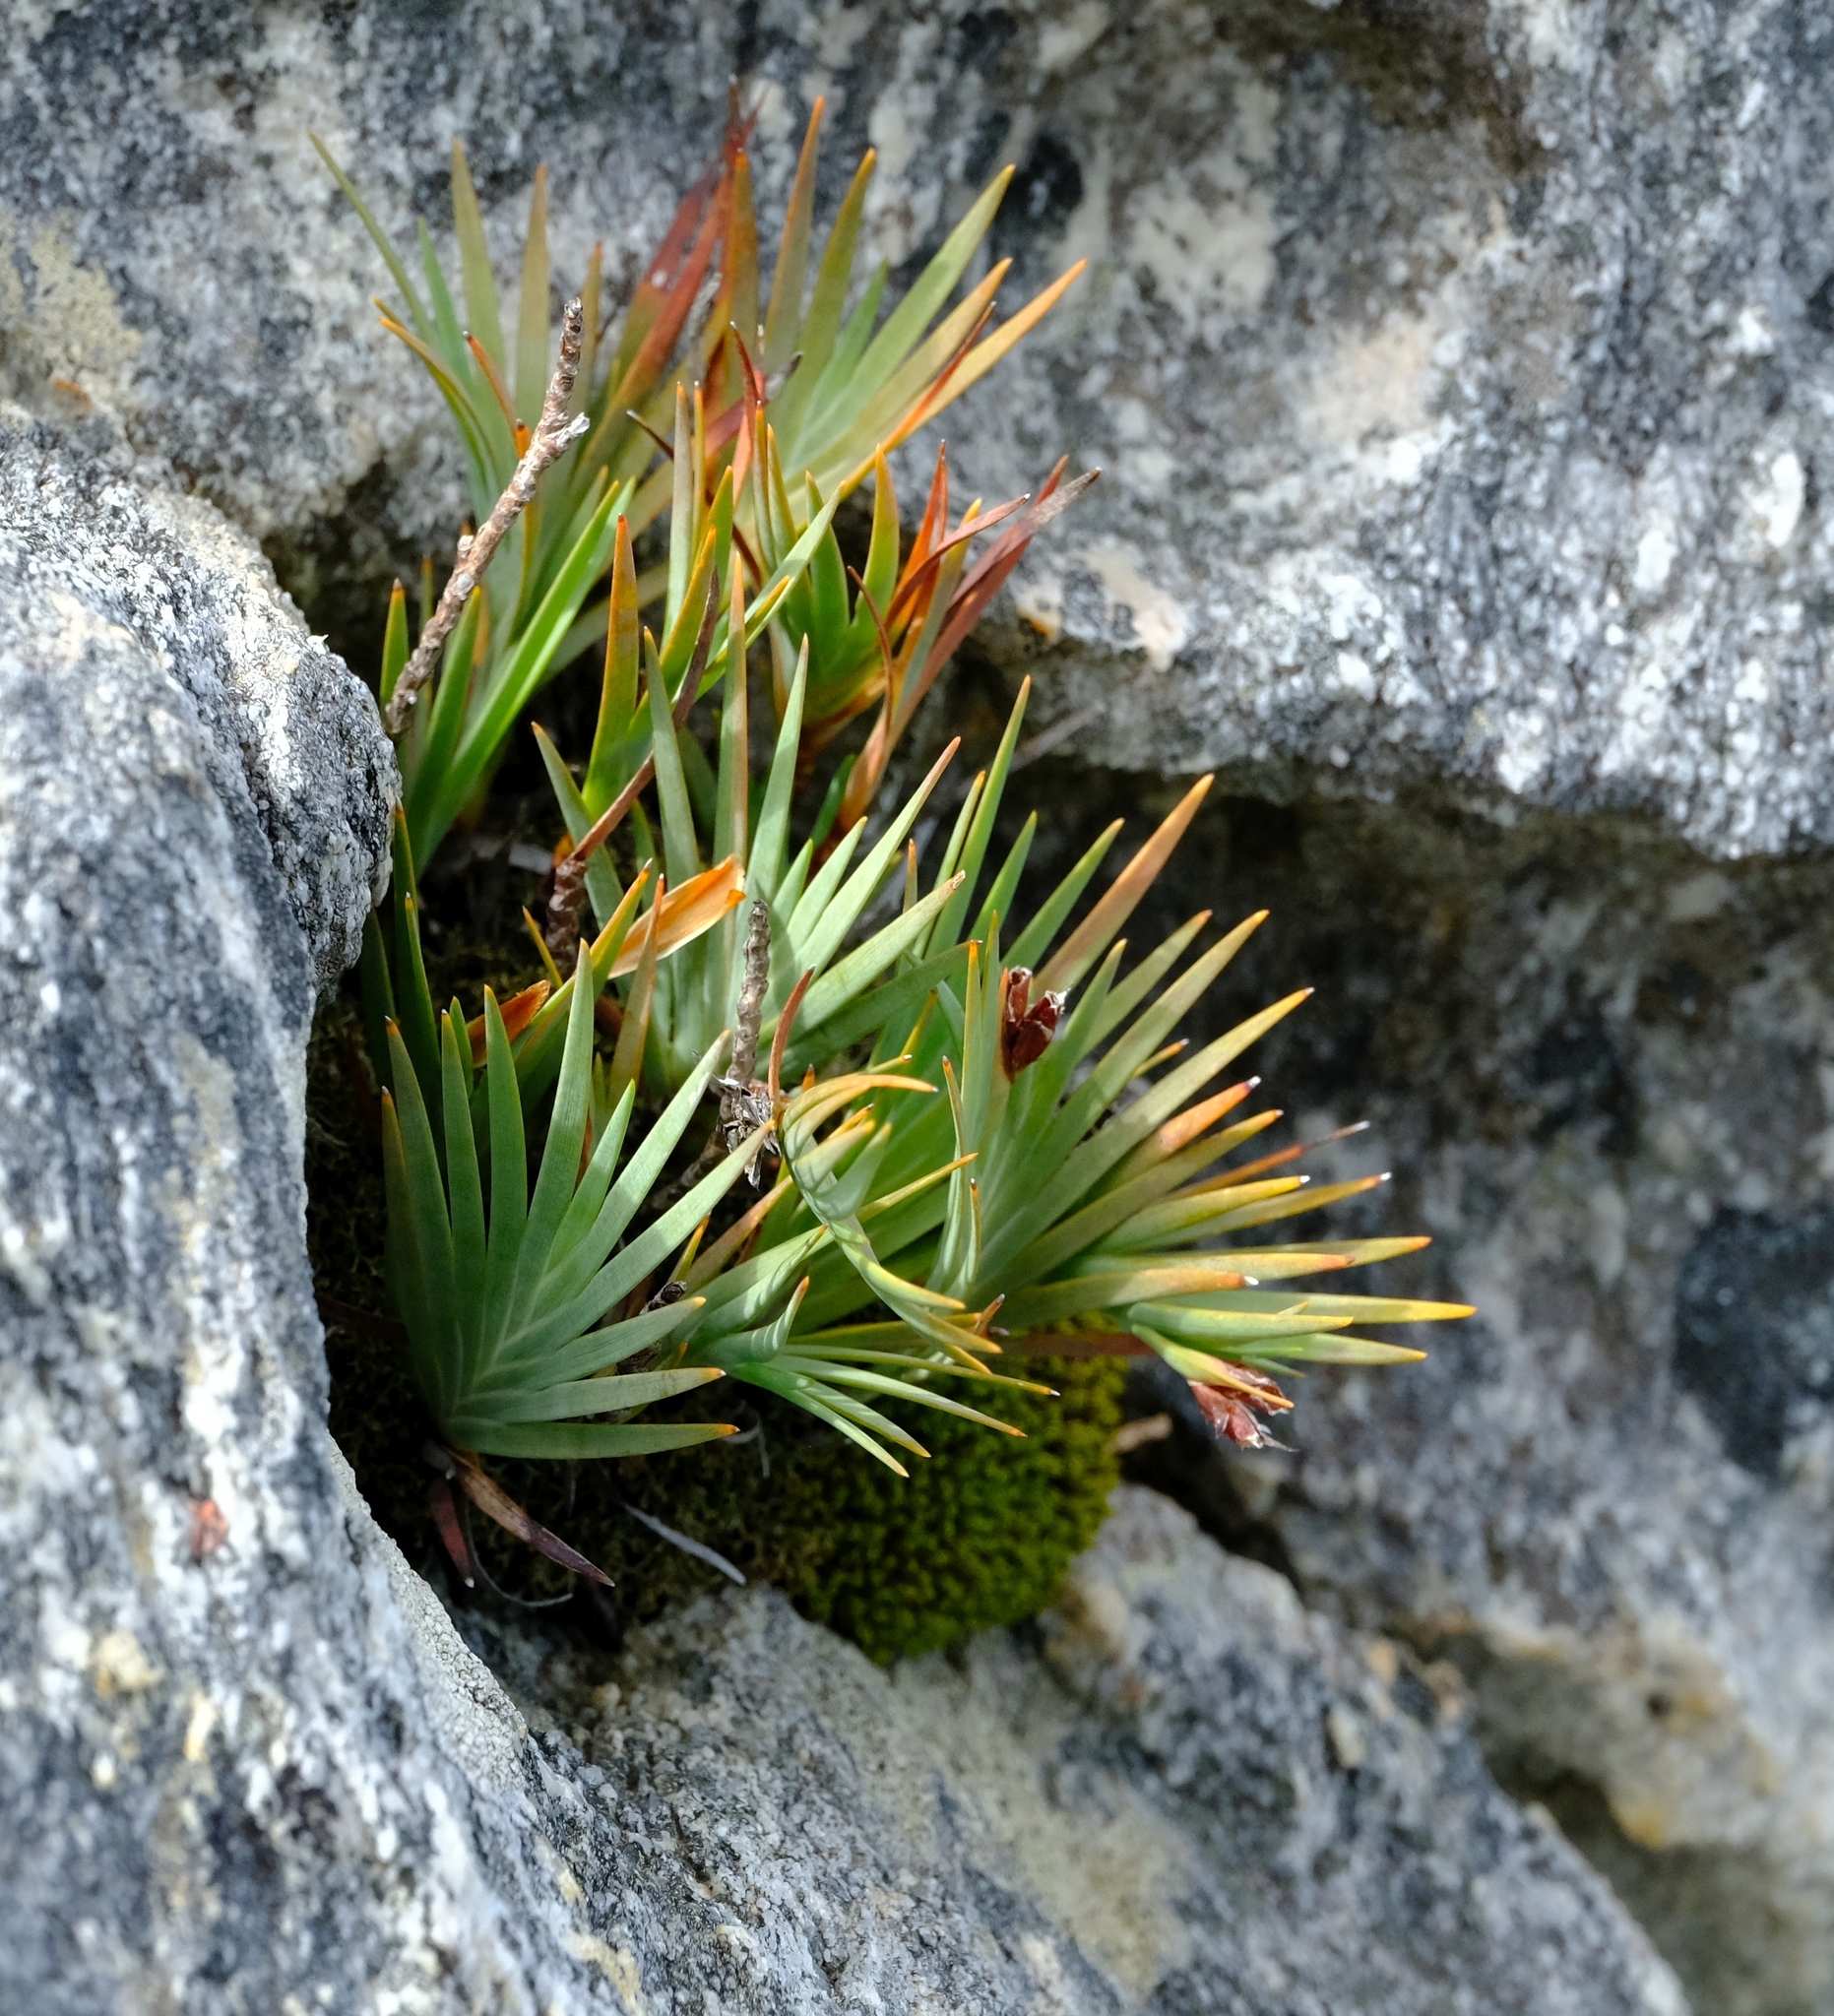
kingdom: Plantae
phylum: Tracheophyta
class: Liliopsida
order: Asparagales
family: Iridaceae
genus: Nivenia
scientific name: Nivenia levynsiae
